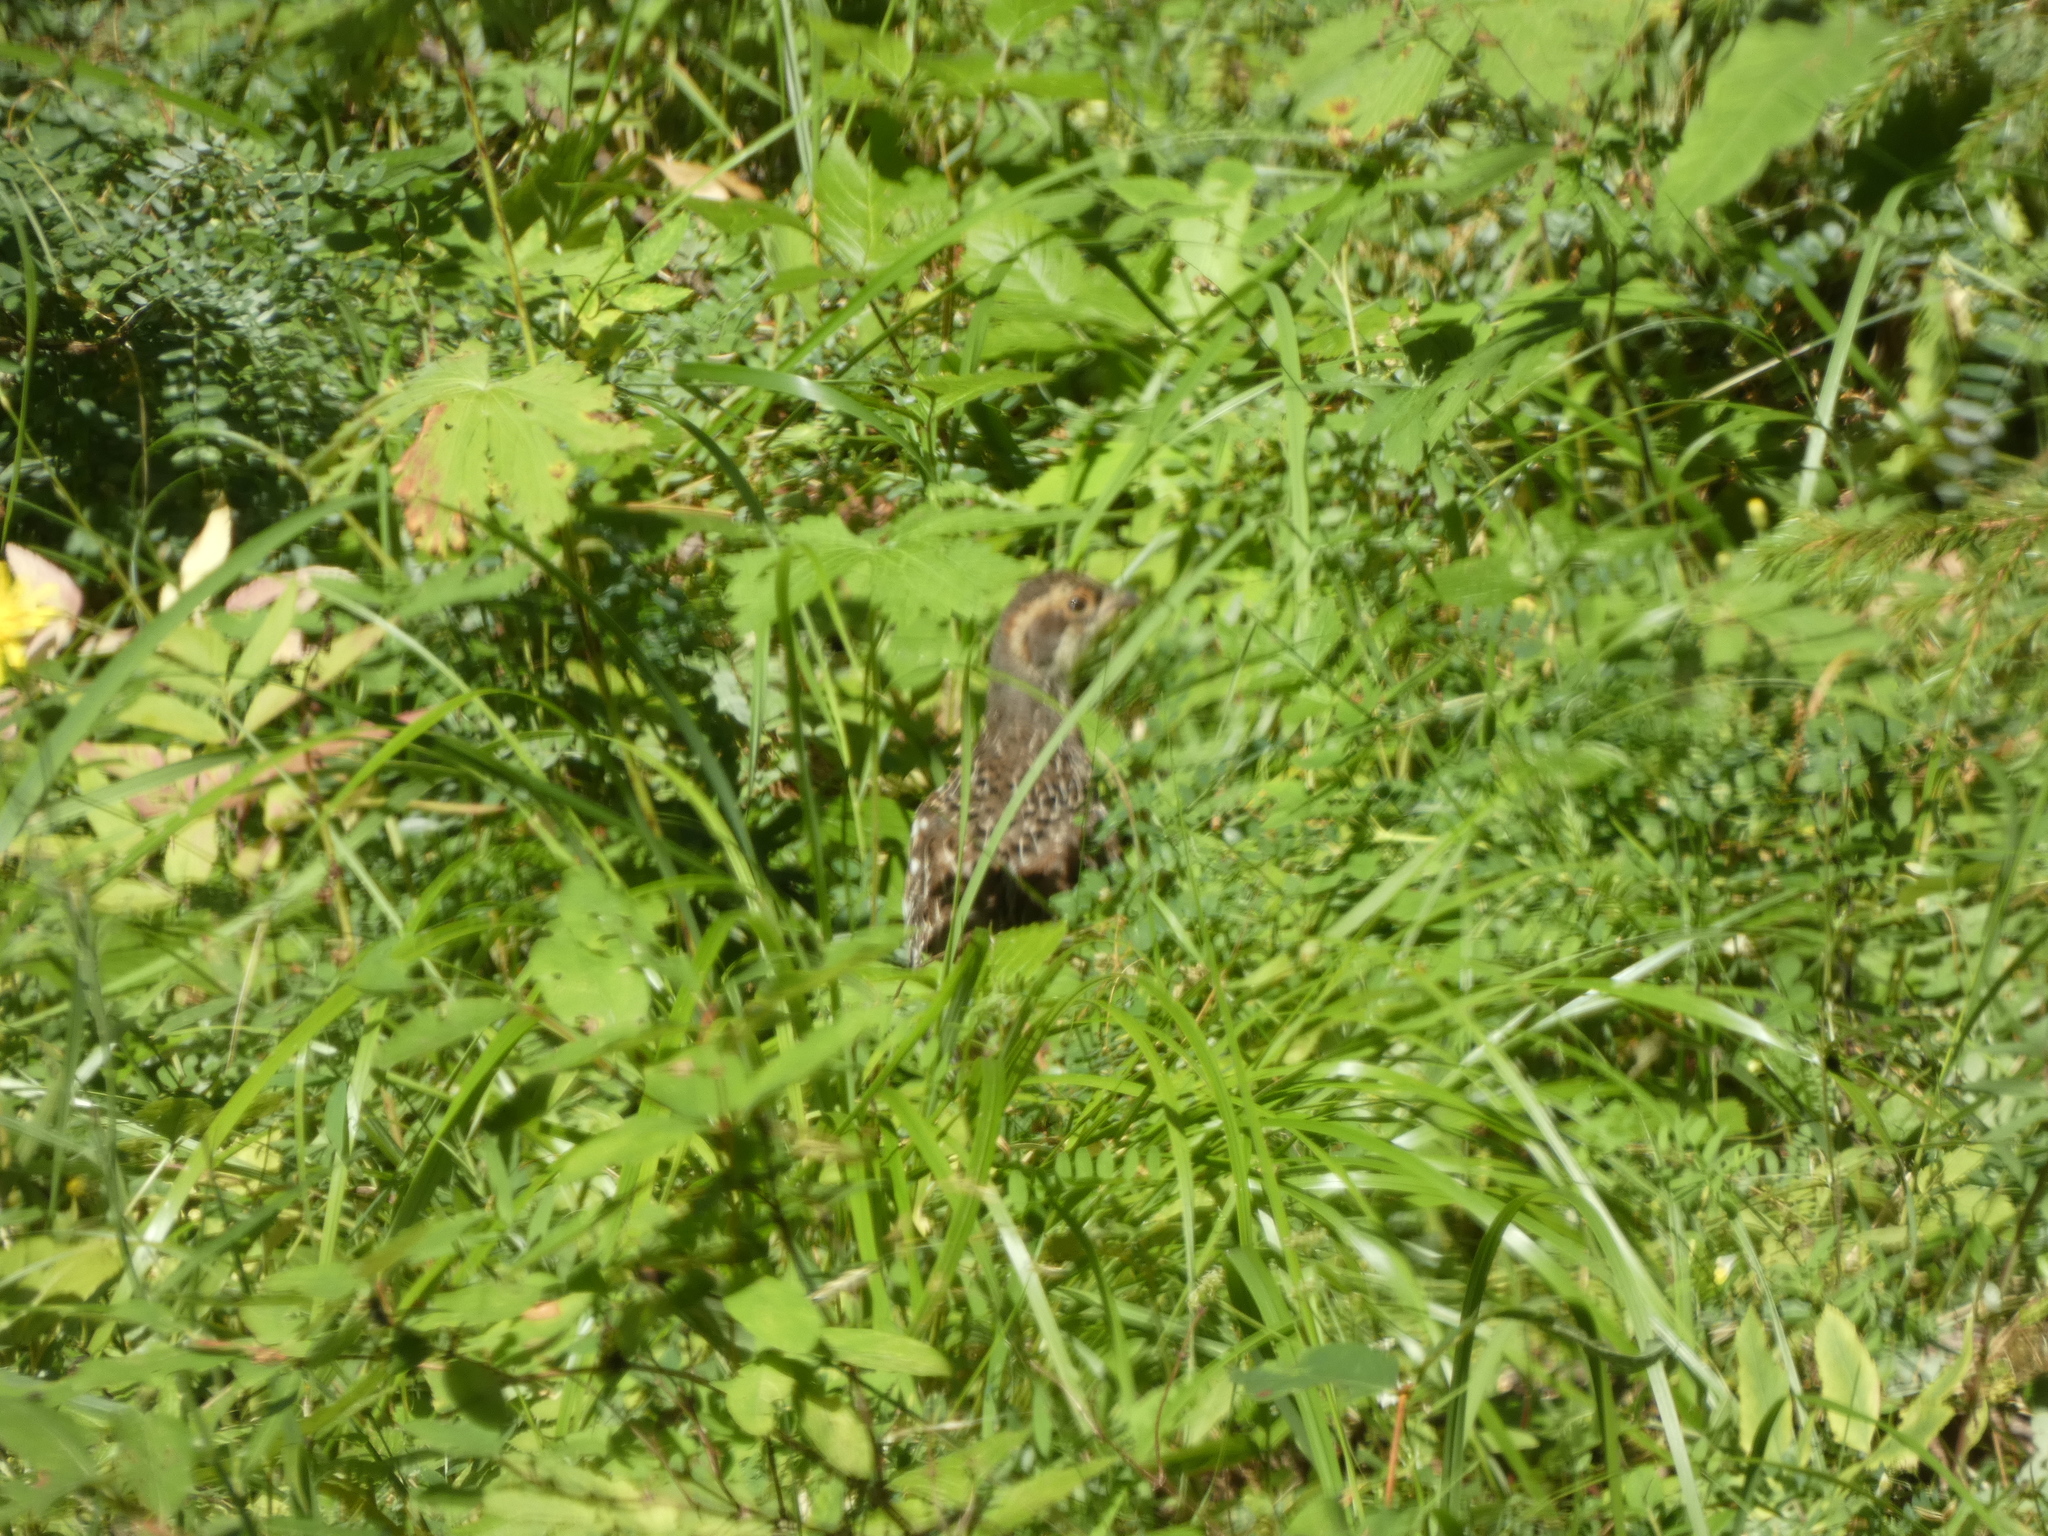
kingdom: Animalia
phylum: Chordata
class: Aves
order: Galliformes
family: Phasianidae
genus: Tetrastes
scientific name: Tetrastes bonasia
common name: Hazel grouse
